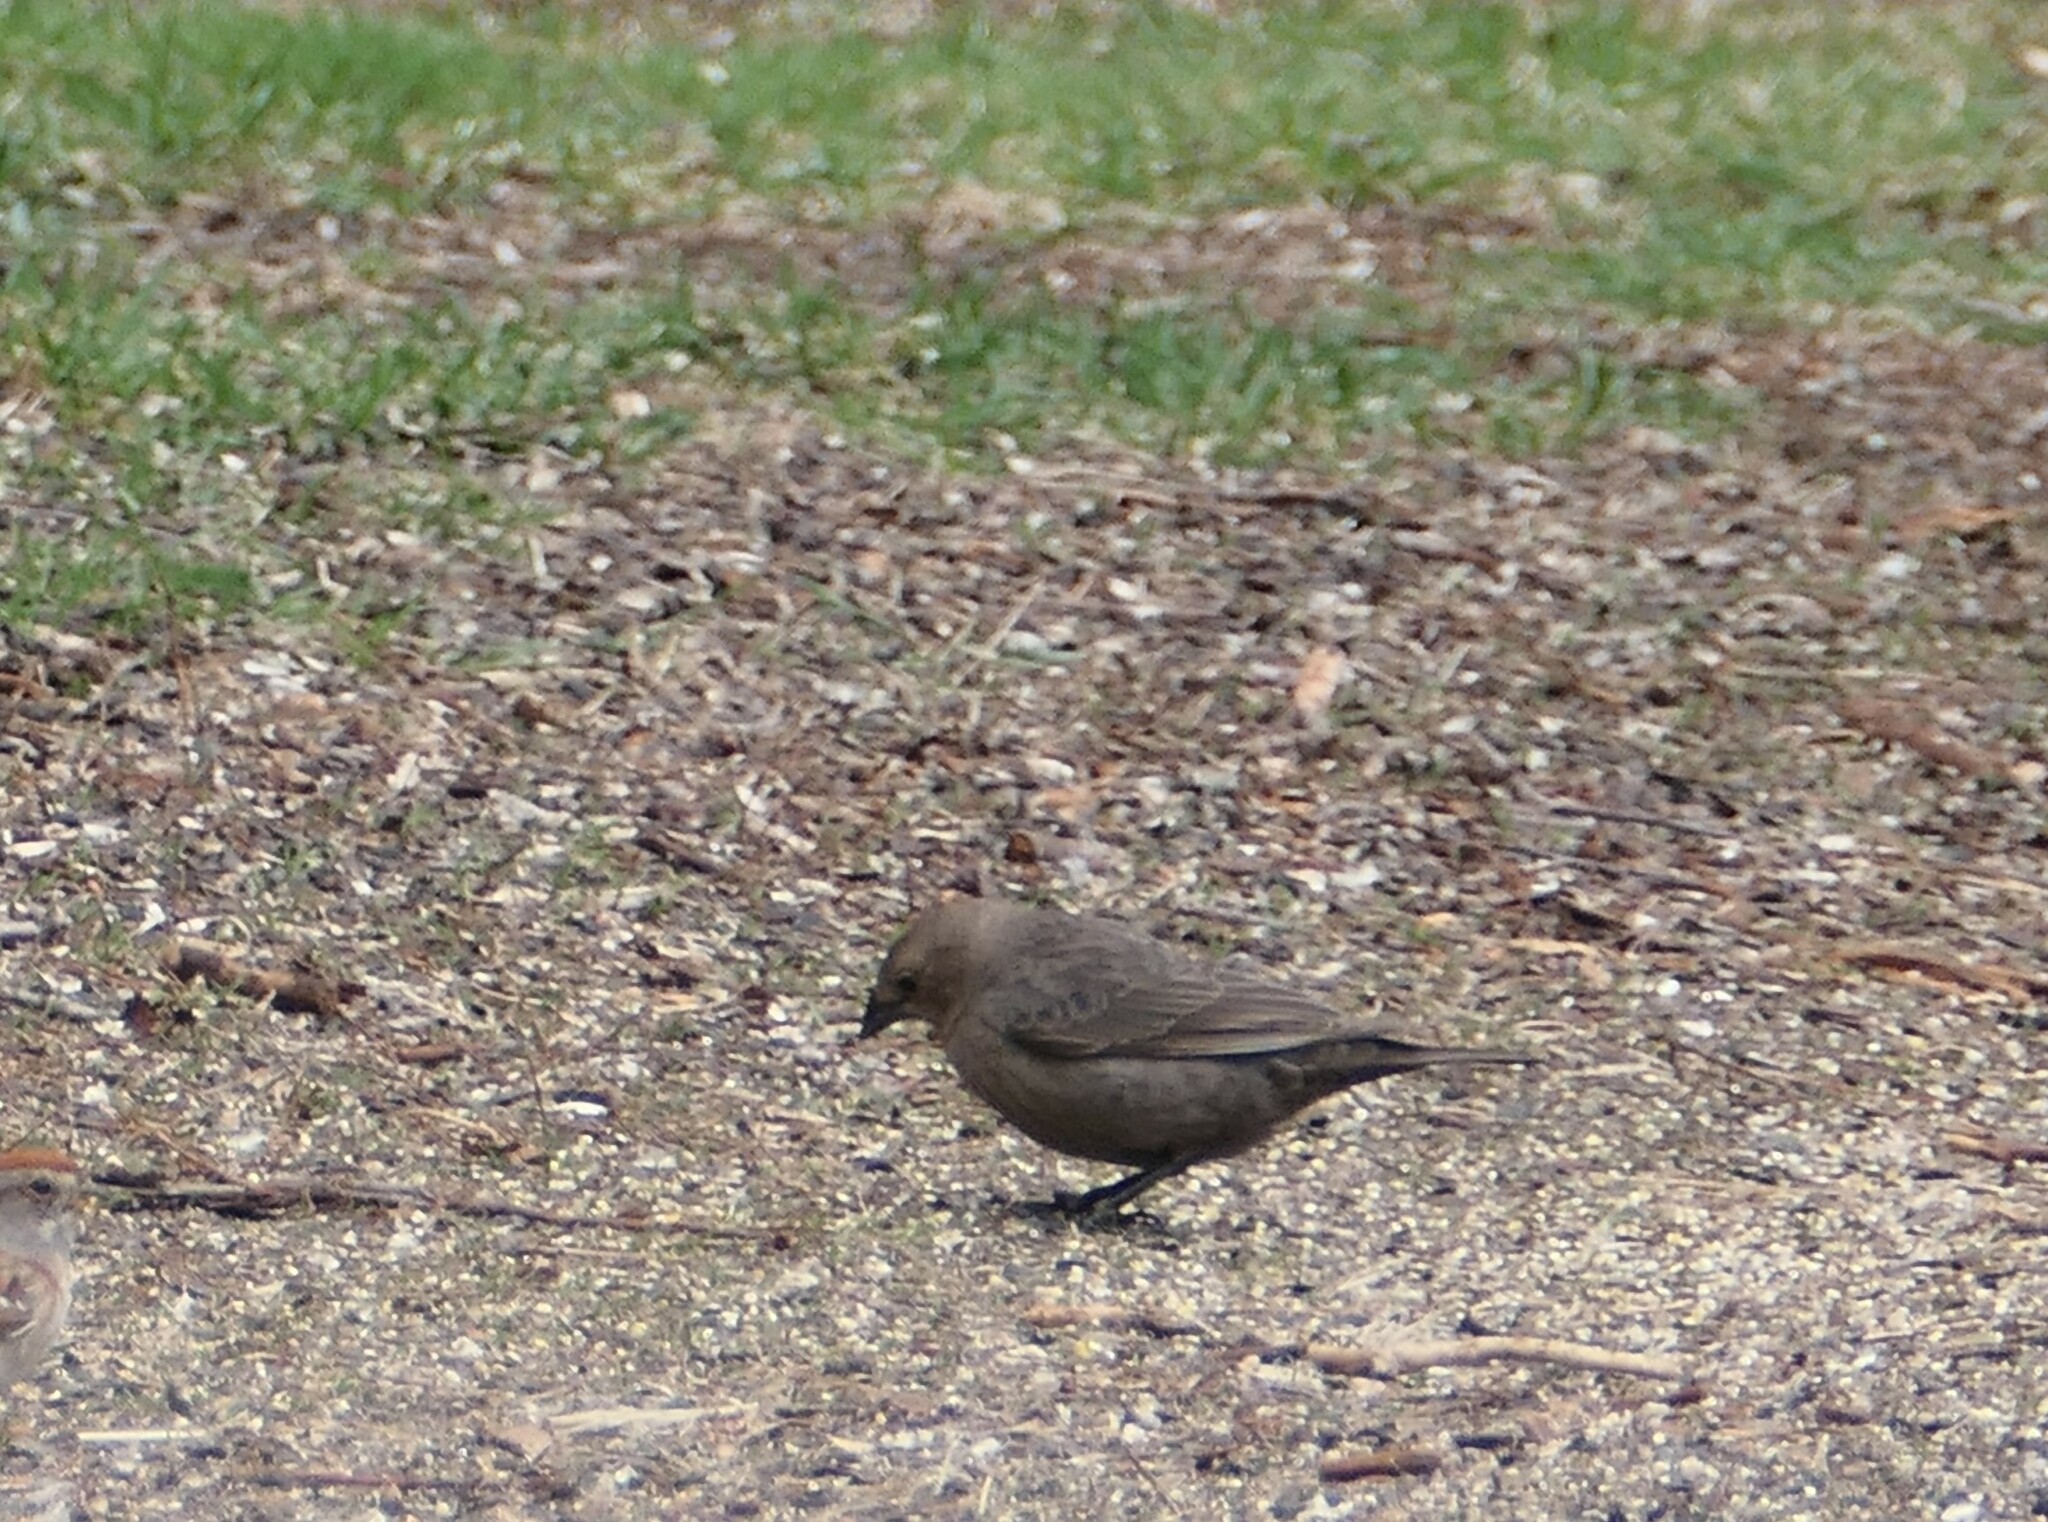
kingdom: Animalia
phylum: Chordata
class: Aves
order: Passeriformes
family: Icteridae
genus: Molothrus
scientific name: Molothrus ater
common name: Brown-headed cowbird
